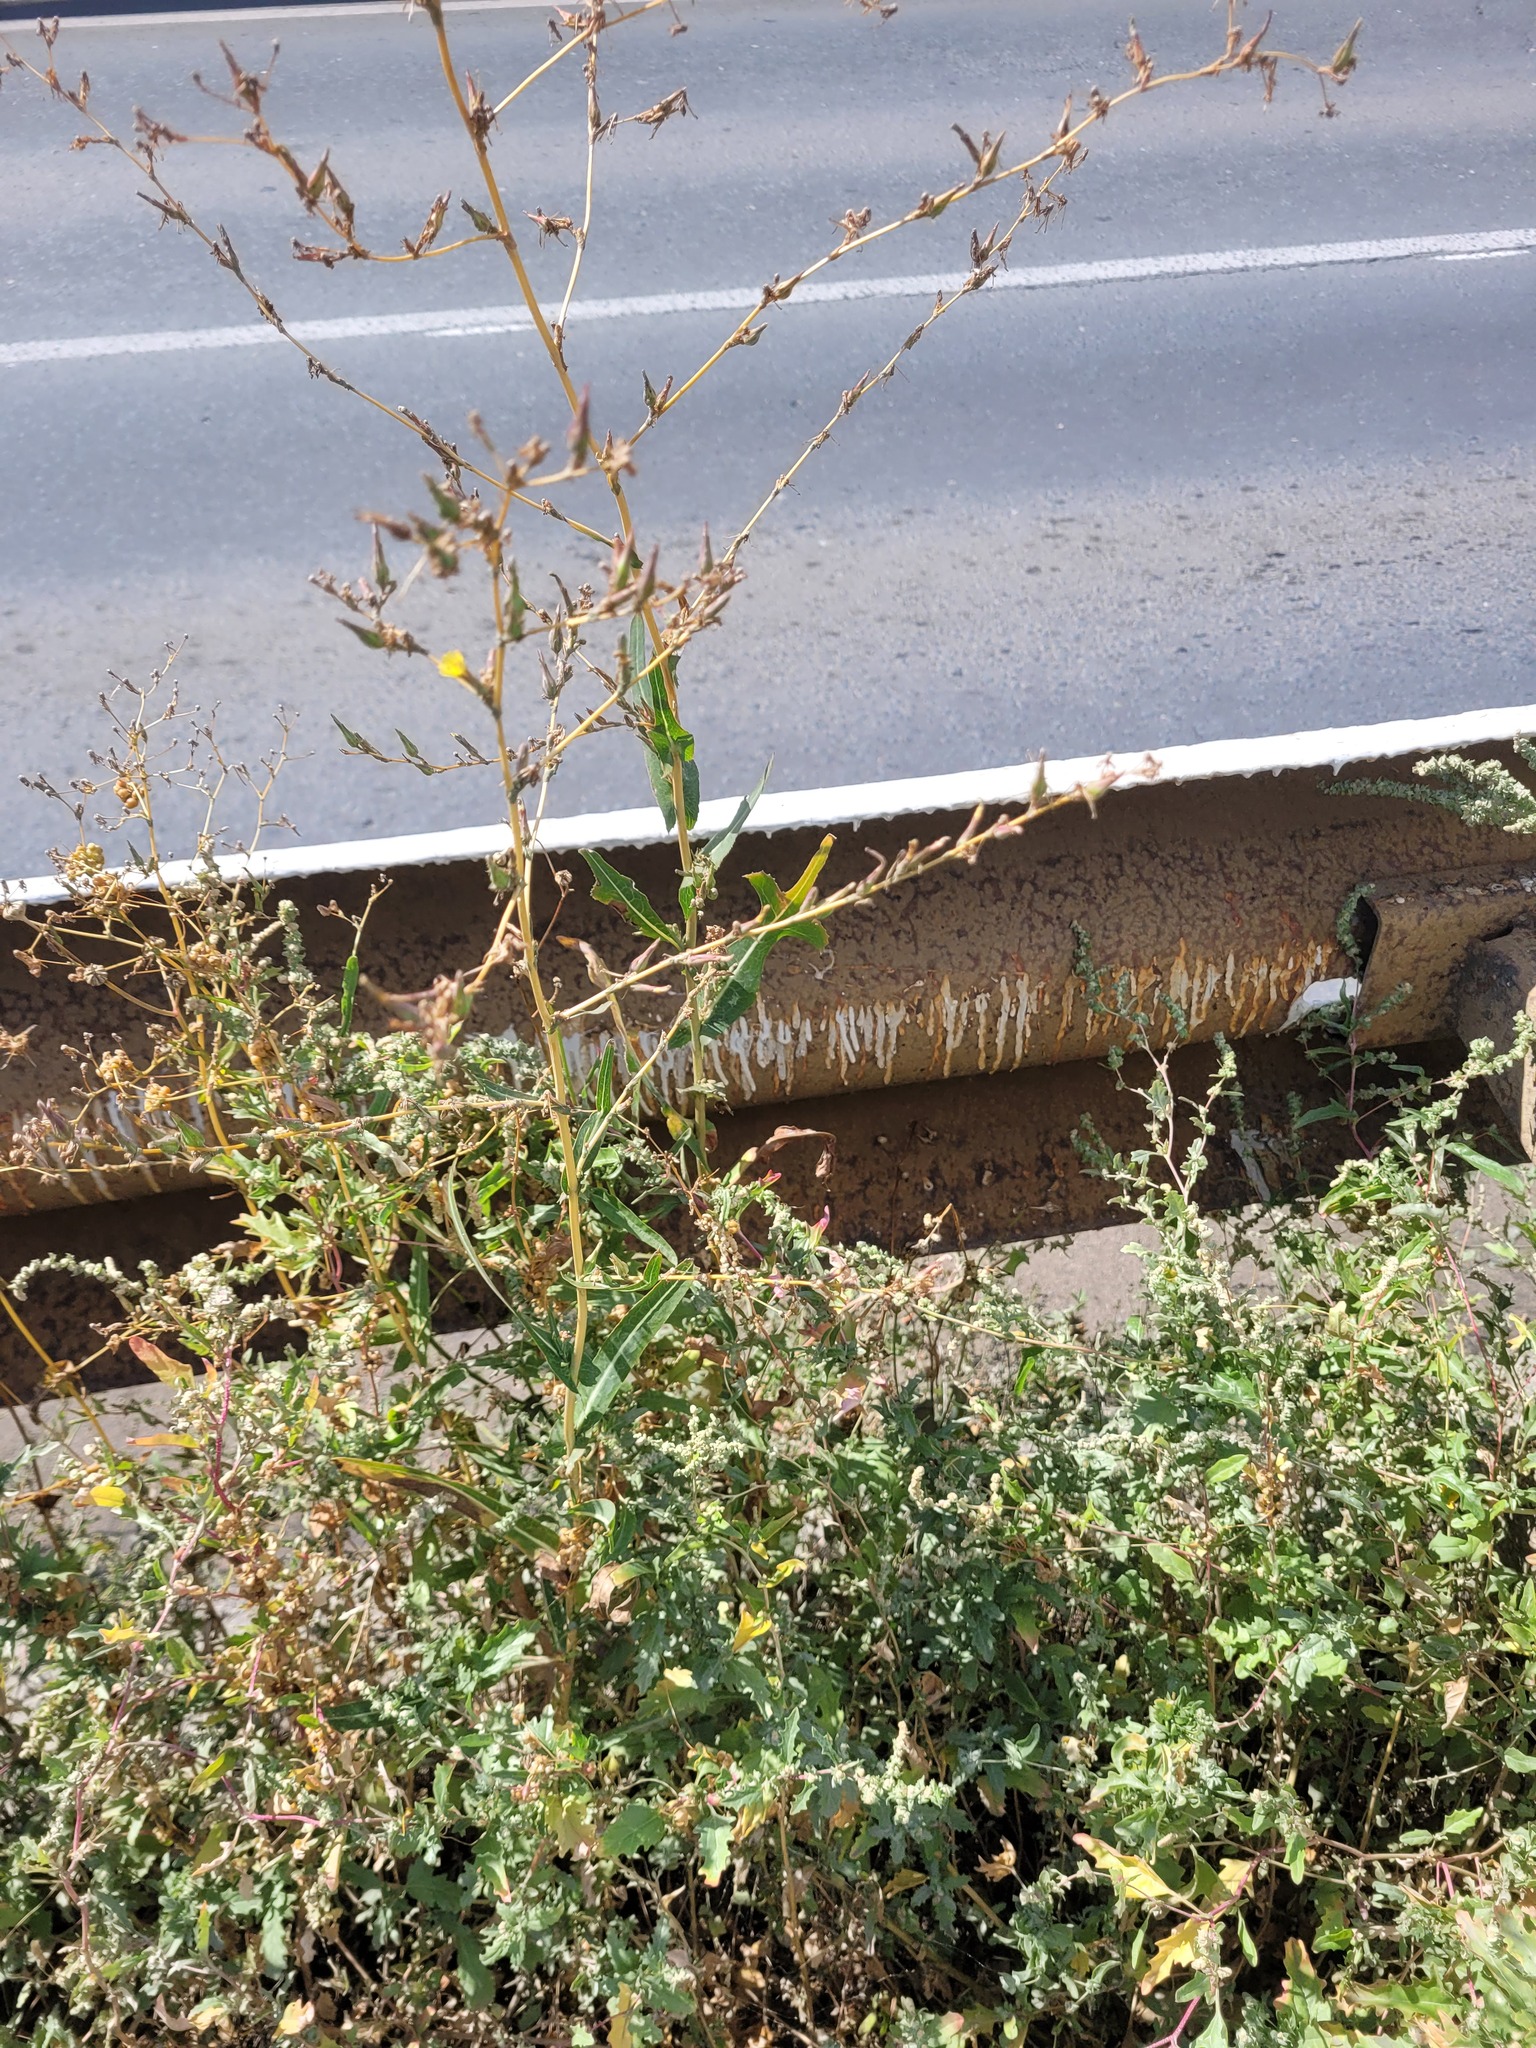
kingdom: Plantae
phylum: Tracheophyta
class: Magnoliopsida
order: Asterales
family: Asteraceae
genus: Lactuca
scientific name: Lactuca serriola
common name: Prickly lettuce
